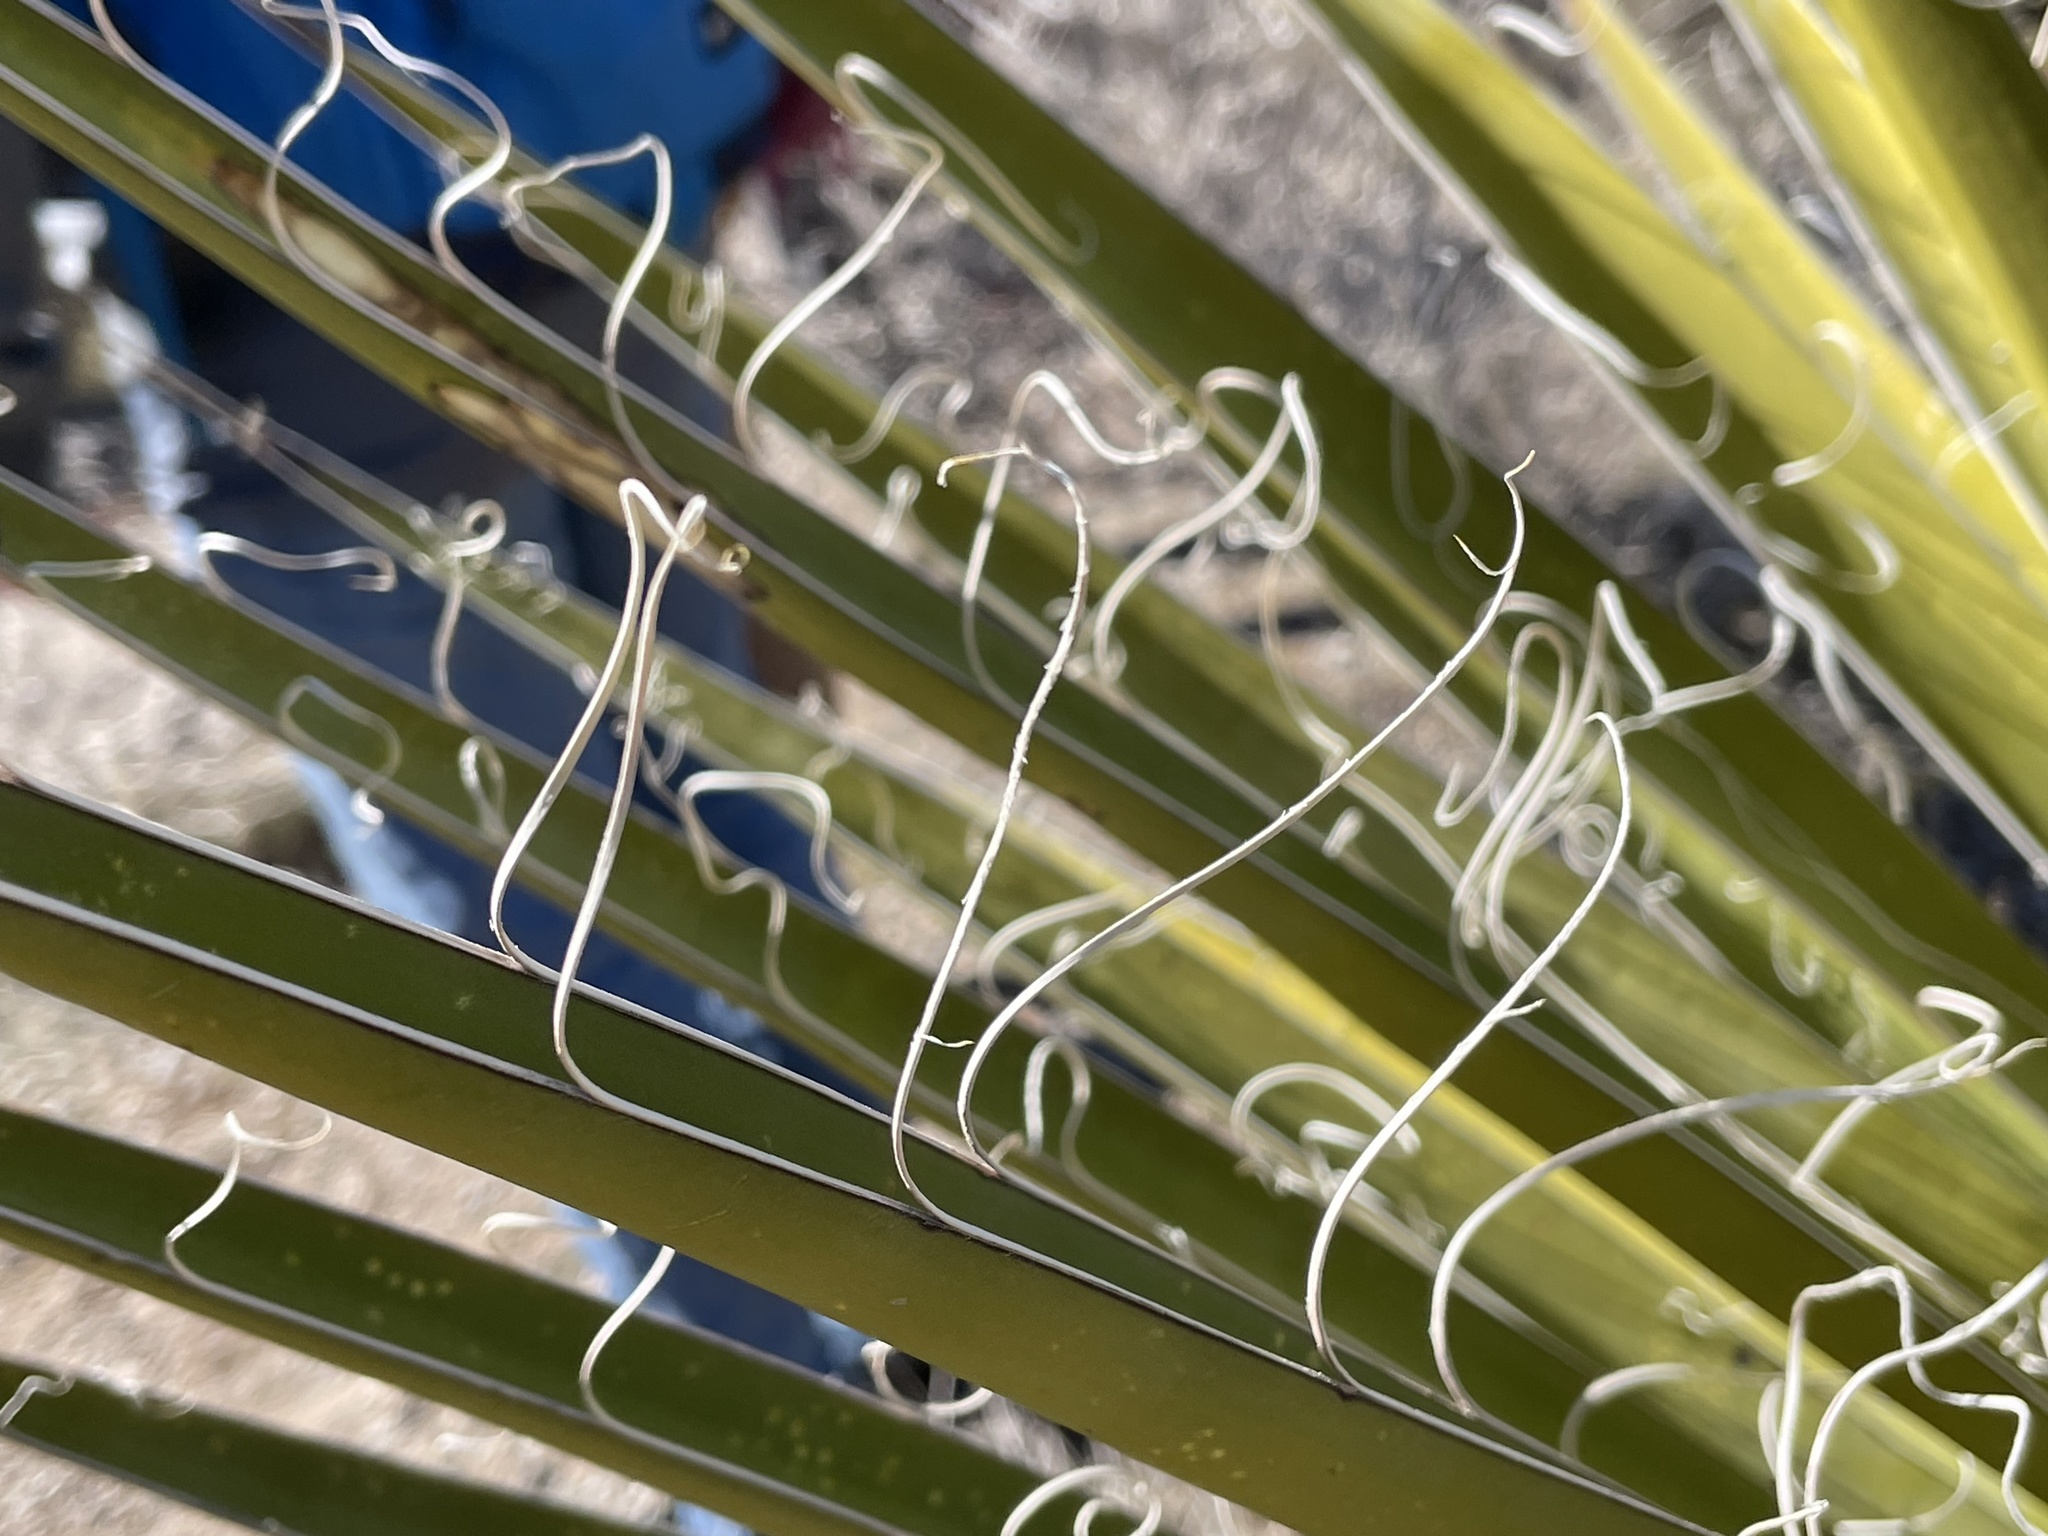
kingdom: Plantae
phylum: Tracheophyta
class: Liliopsida
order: Asparagales
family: Asparagaceae
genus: Yucca
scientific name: Yucca schidigera
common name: Mojave yucca
